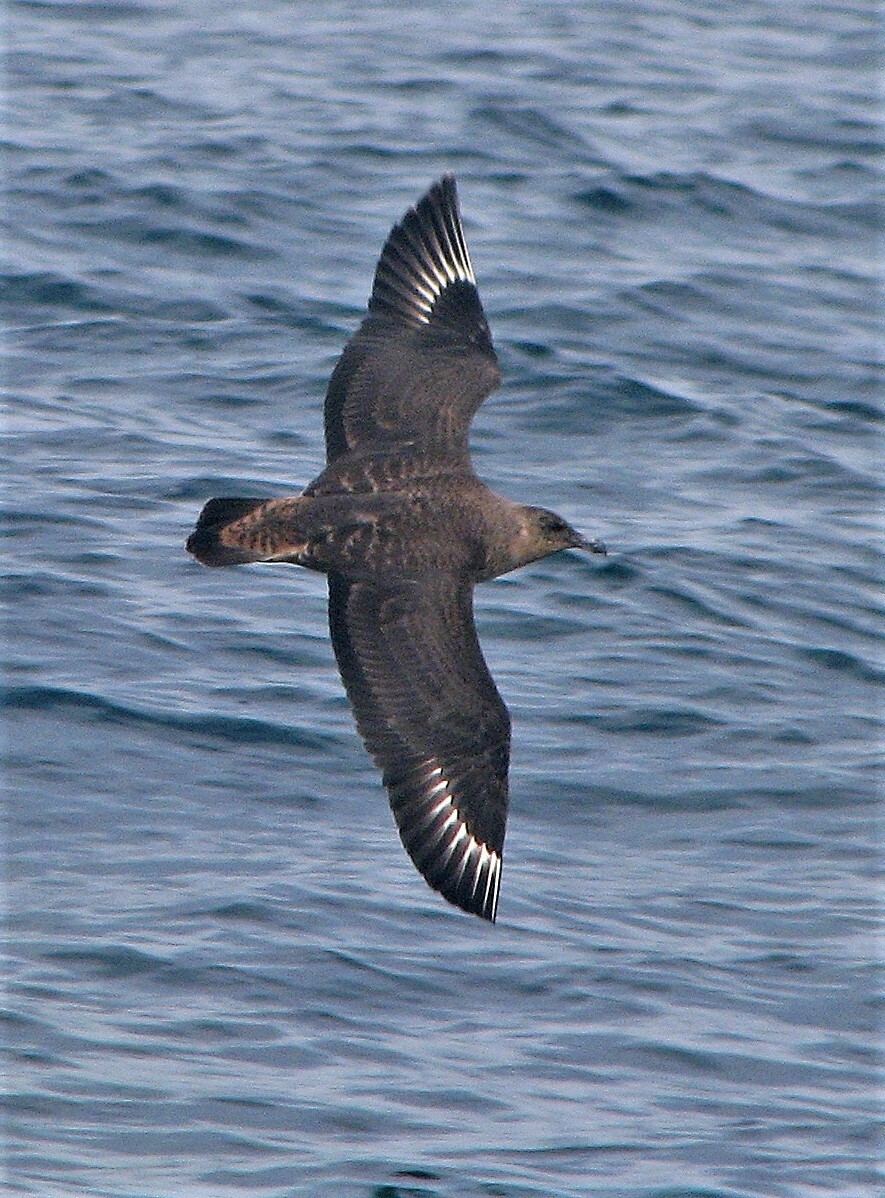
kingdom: Animalia
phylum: Chordata
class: Aves
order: Charadriiformes
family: Stercorariidae
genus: Stercorarius
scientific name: Stercorarius chilensis
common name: Chilean skua
